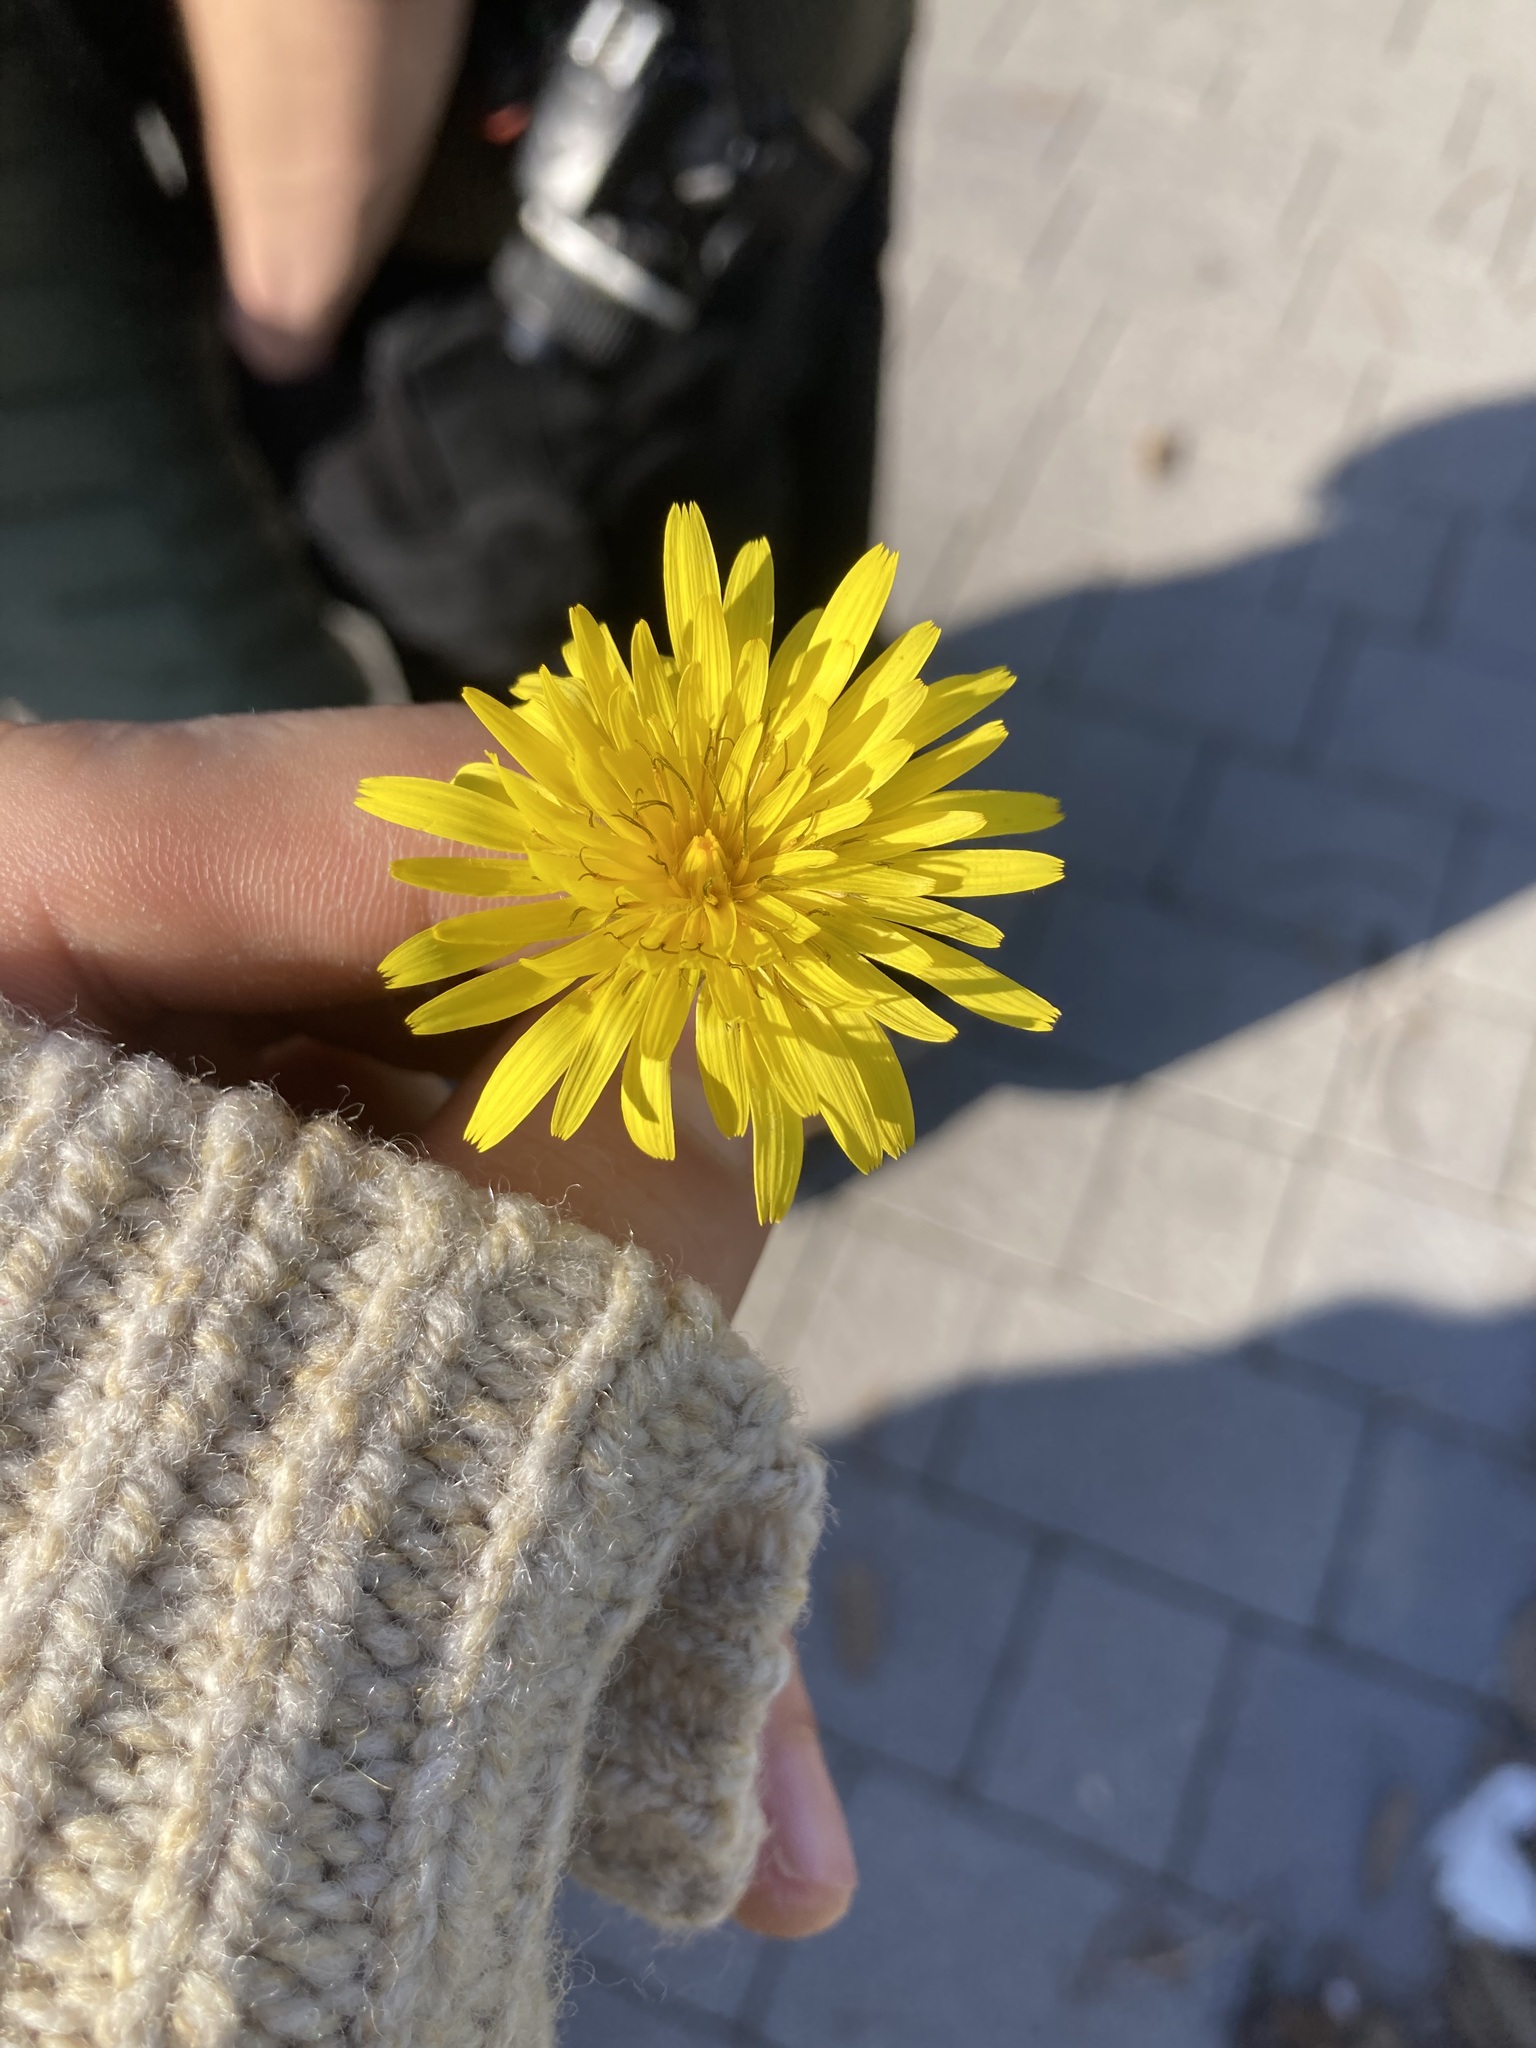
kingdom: Plantae
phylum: Tracheophyta
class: Magnoliopsida
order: Asterales
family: Asteraceae
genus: Reichardia
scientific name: Reichardia picroides
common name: Common brighteyes
